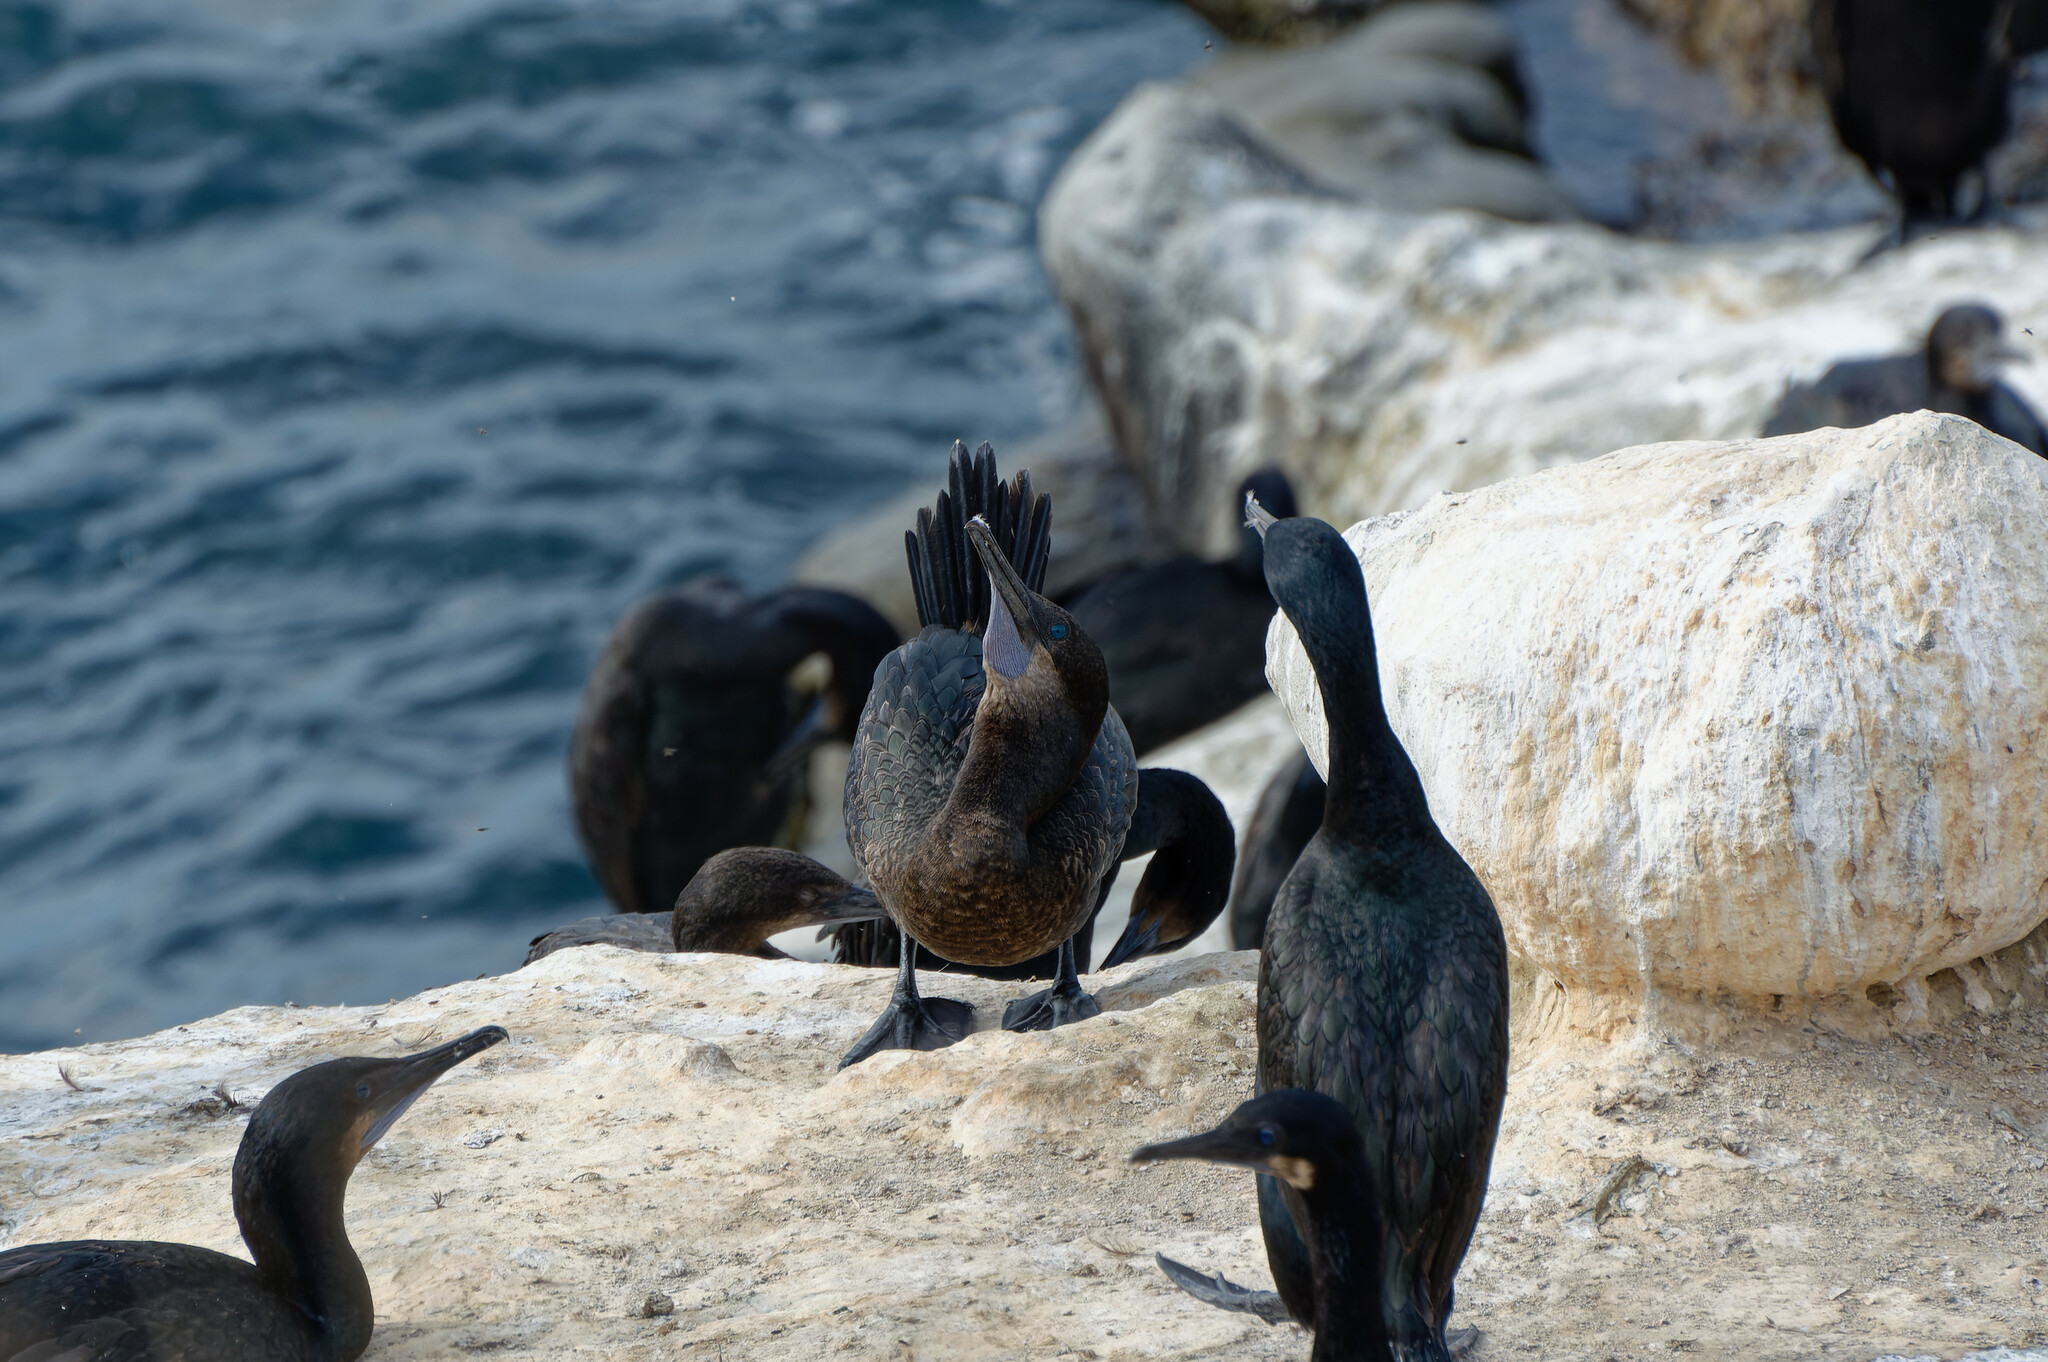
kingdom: Animalia
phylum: Chordata
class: Aves
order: Suliformes
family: Phalacrocoracidae
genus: Urile
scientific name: Urile penicillatus
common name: Brandt's cormorant
